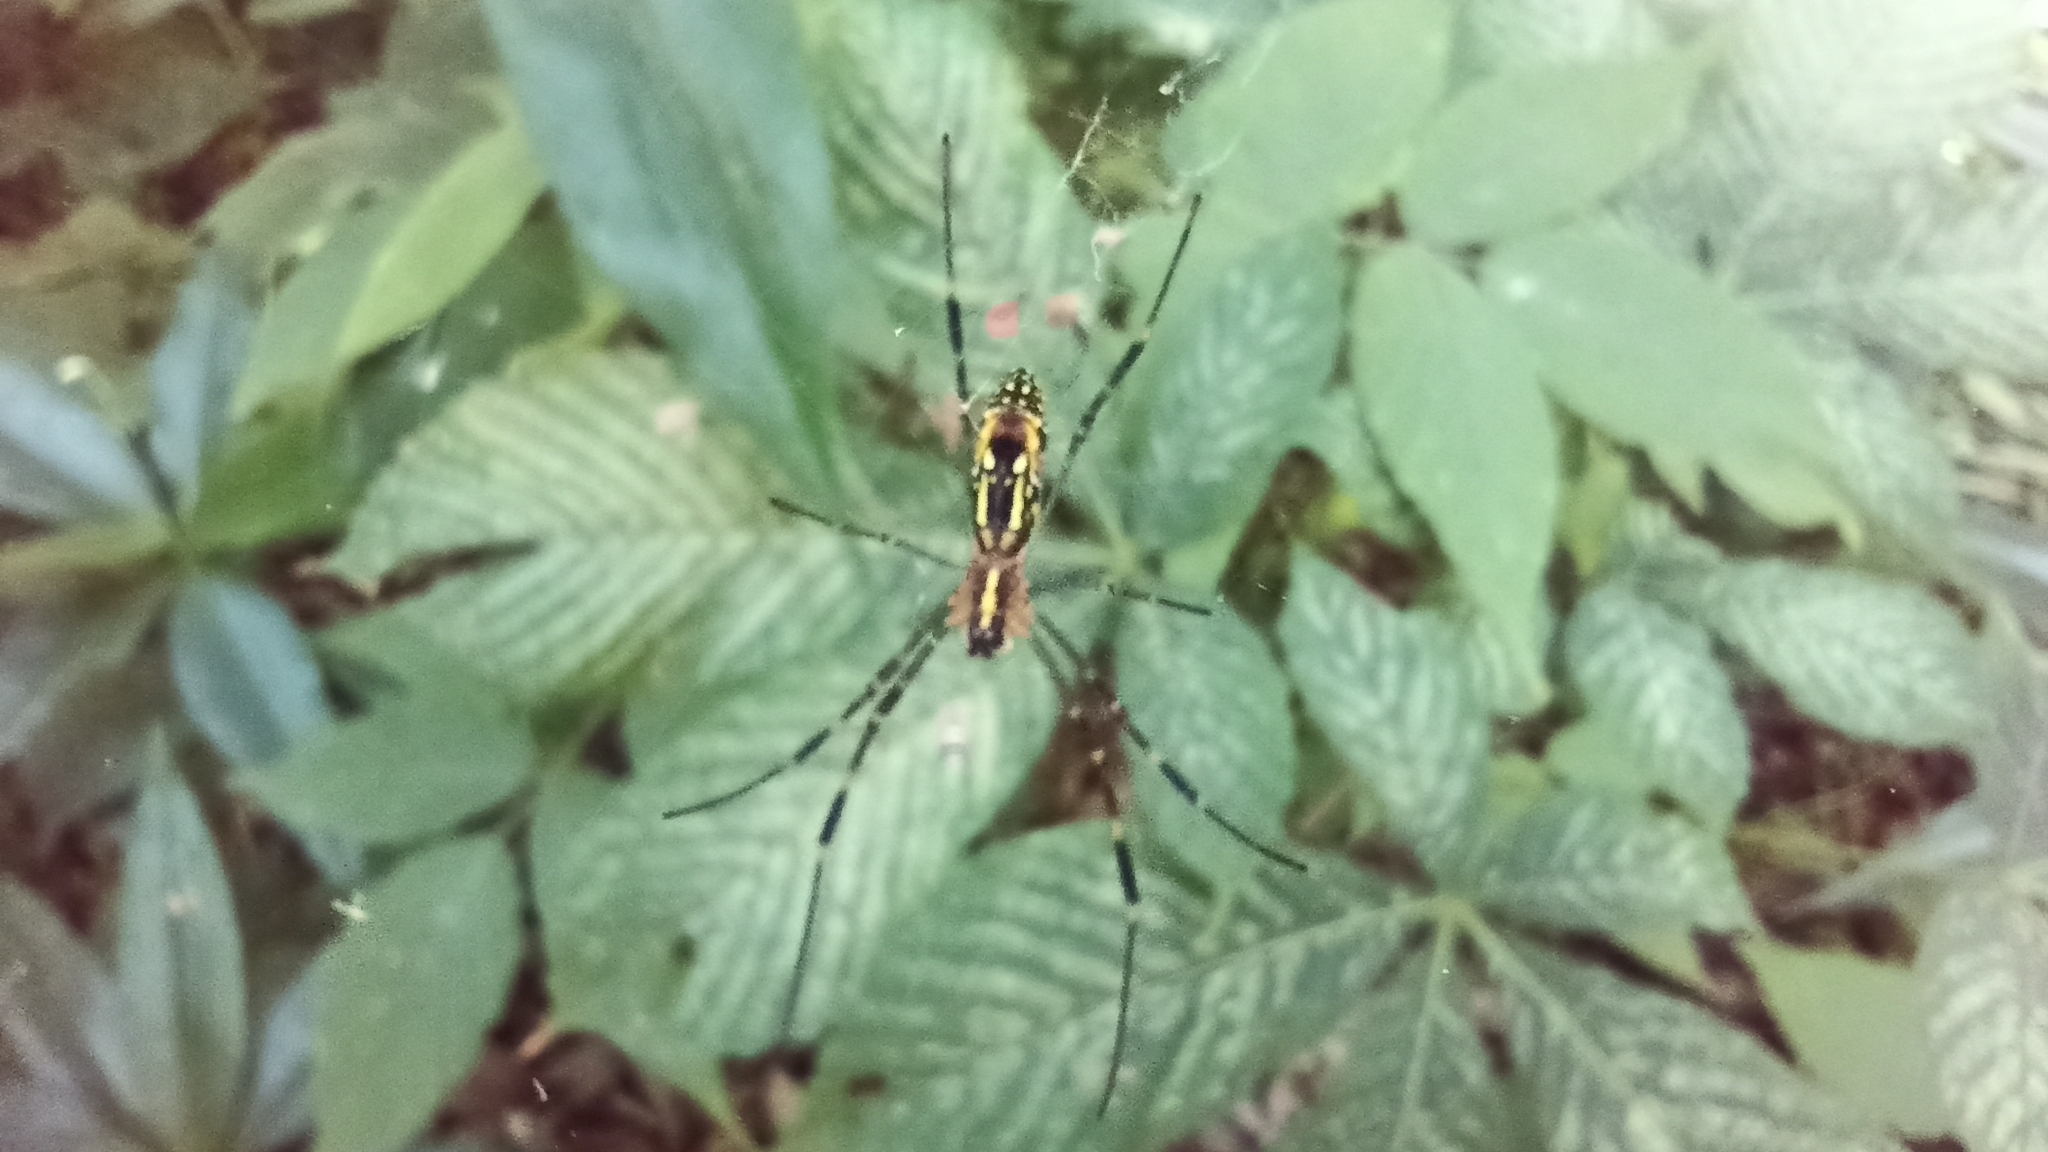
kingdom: Animalia
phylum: Arthropoda
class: Arachnida
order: Araneae
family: Araneidae
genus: Trichonephila
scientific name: Trichonephila clavata
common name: Jorō spider
